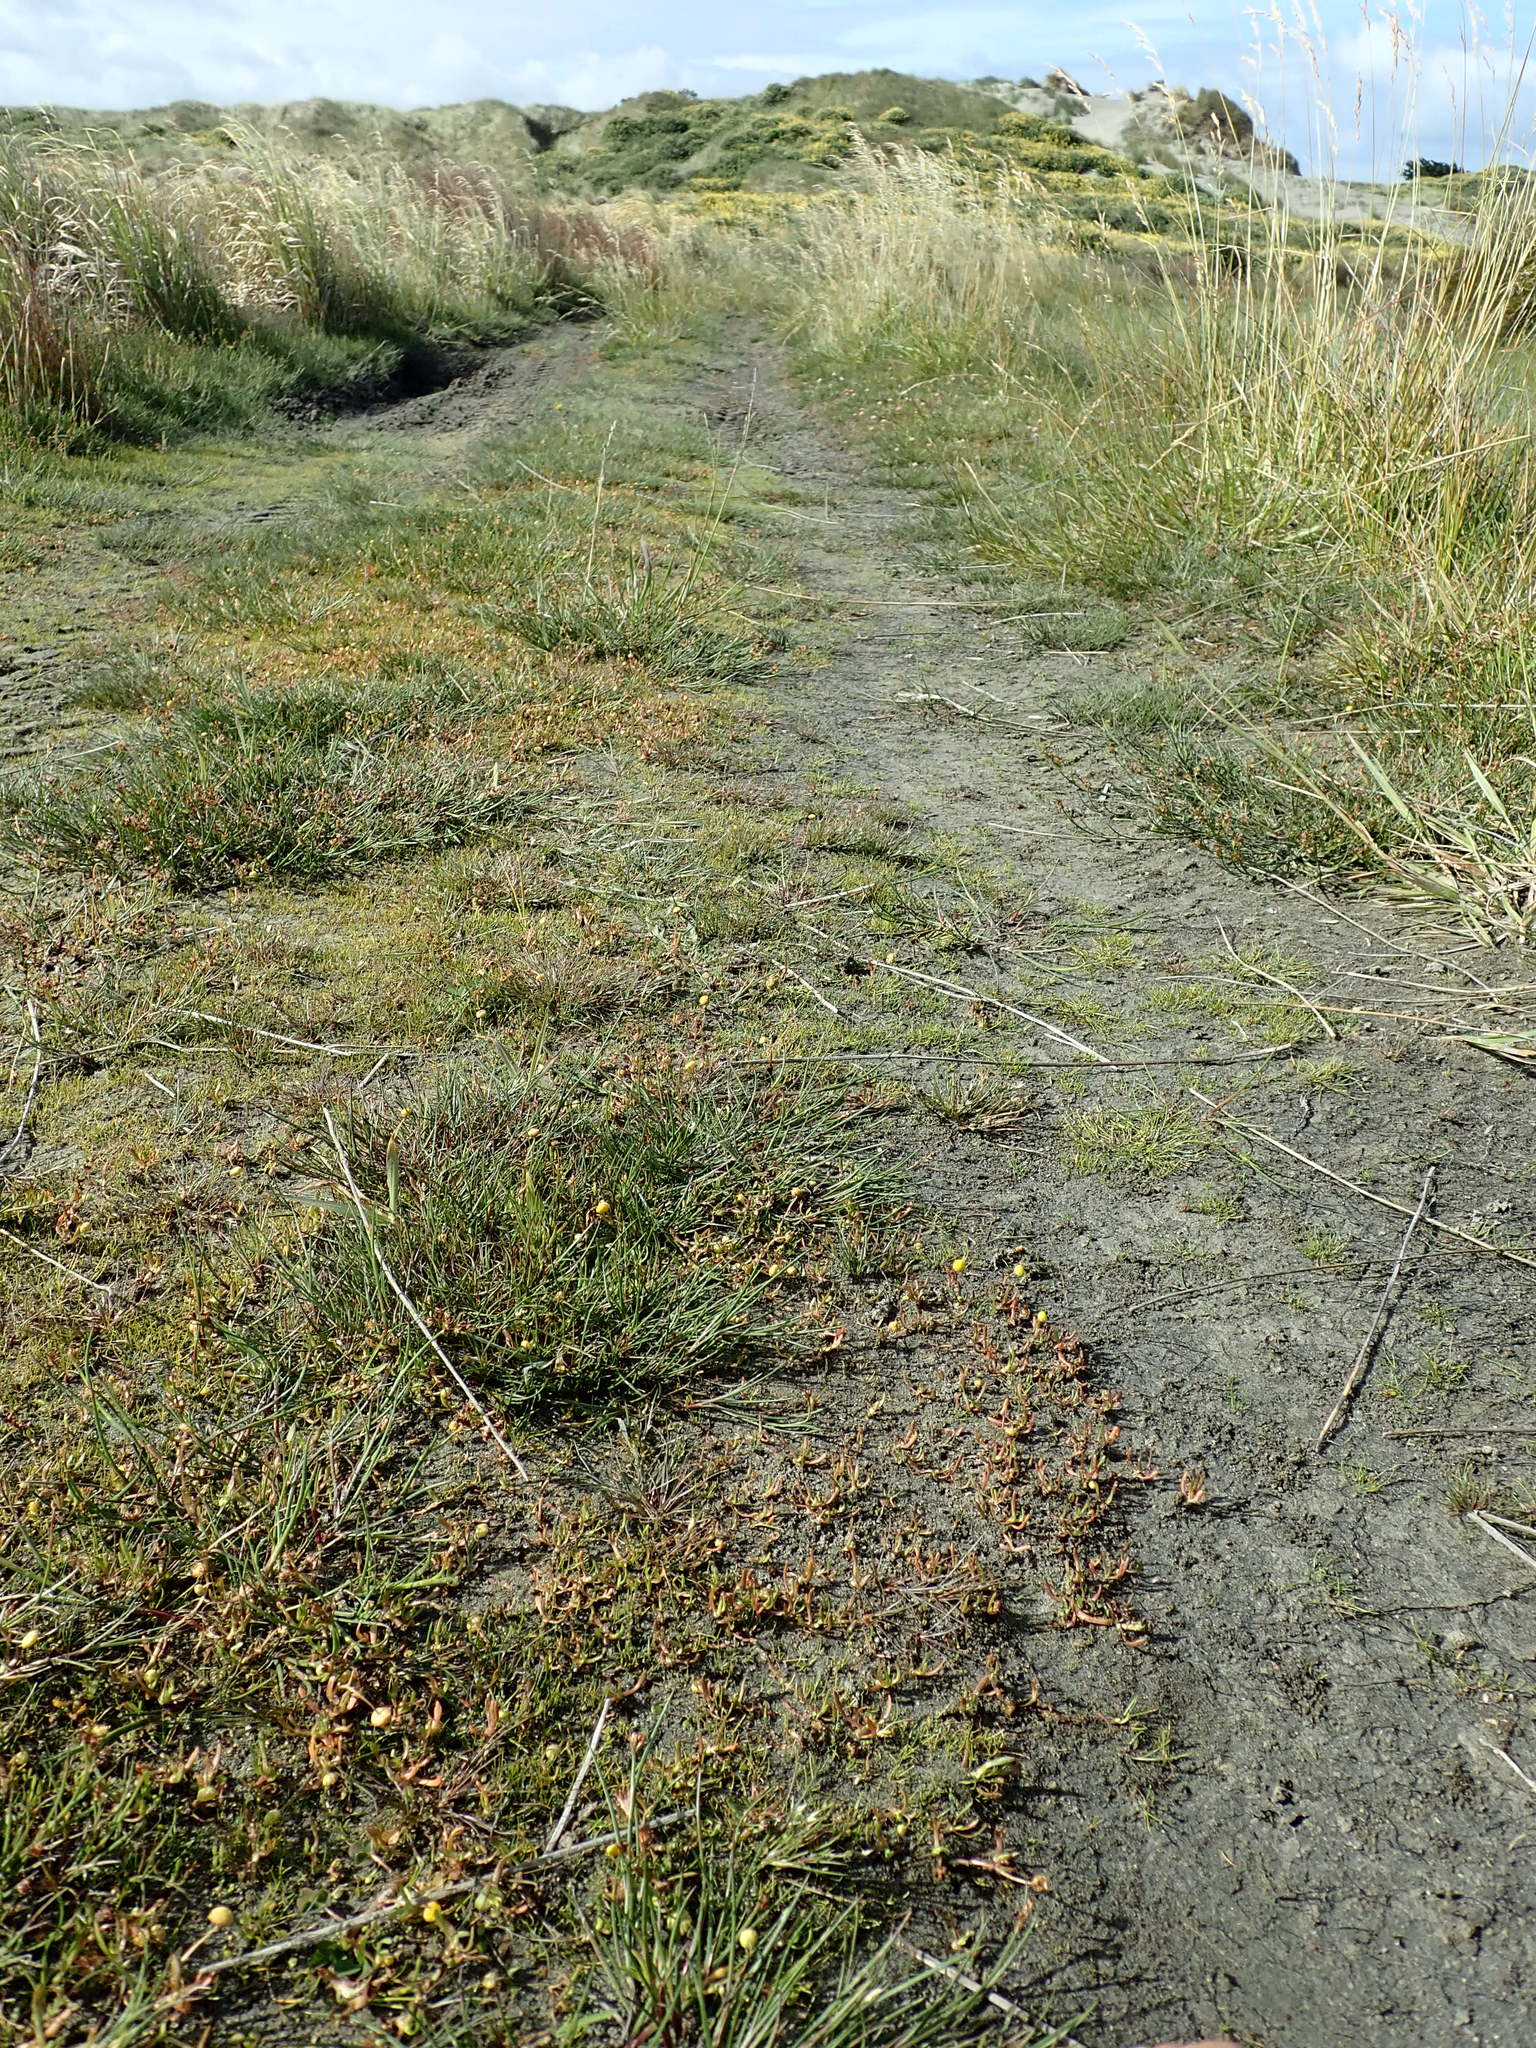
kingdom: Plantae
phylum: Tracheophyta
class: Magnoliopsida
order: Asterales
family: Asteraceae
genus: Cotula
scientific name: Cotula coronopifolia
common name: Buttonweed
